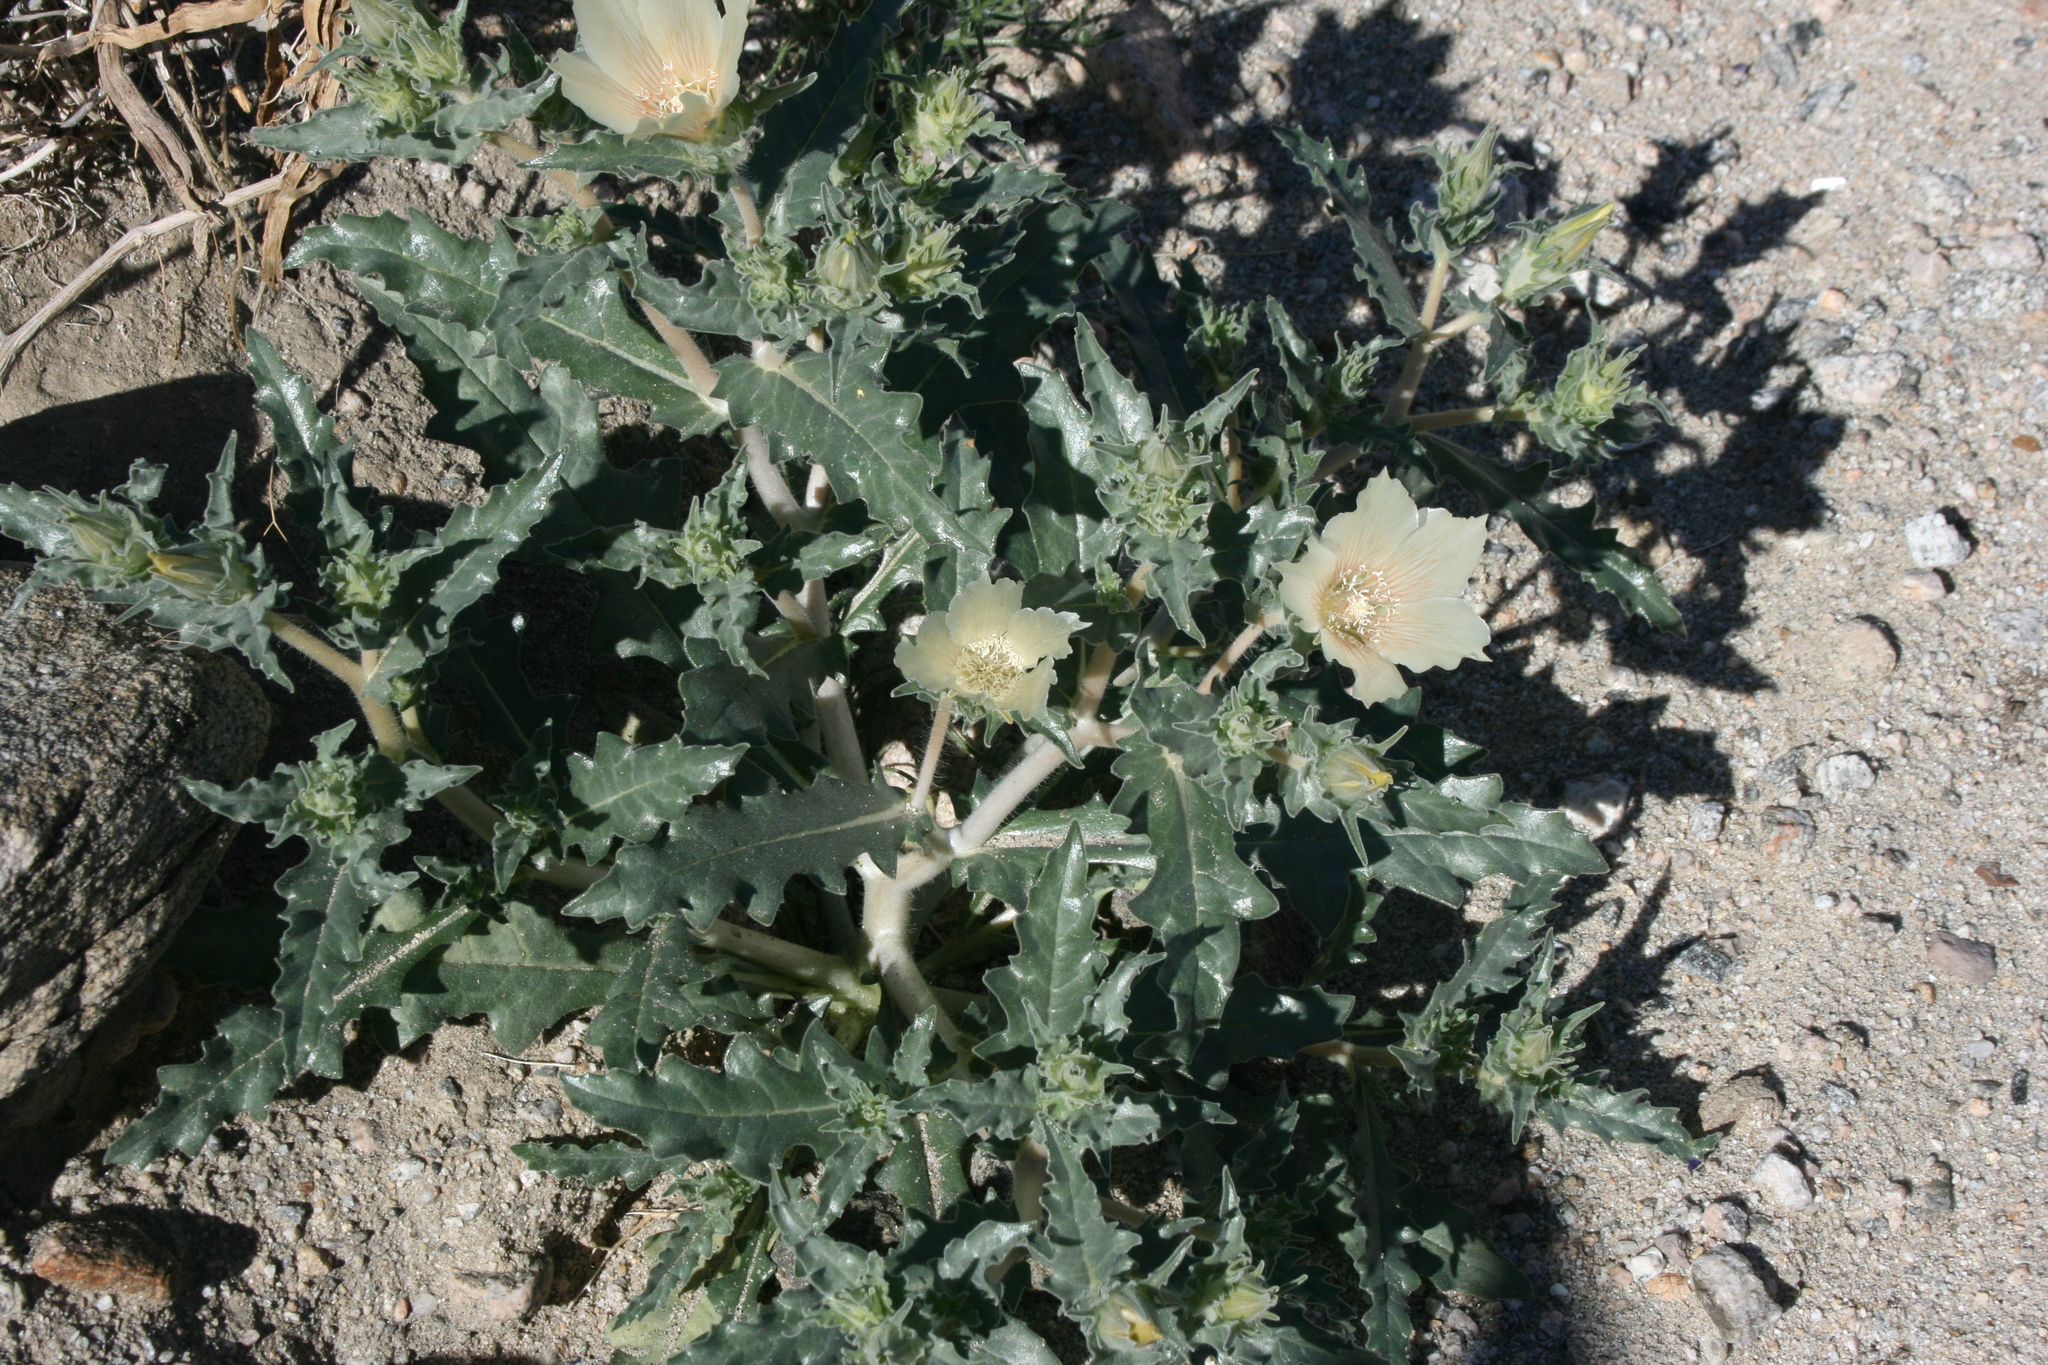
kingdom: Plantae
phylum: Tracheophyta
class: Magnoliopsida
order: Cornales
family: Loasaceae
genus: Mentzelia
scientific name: Mentzelia involucrata
